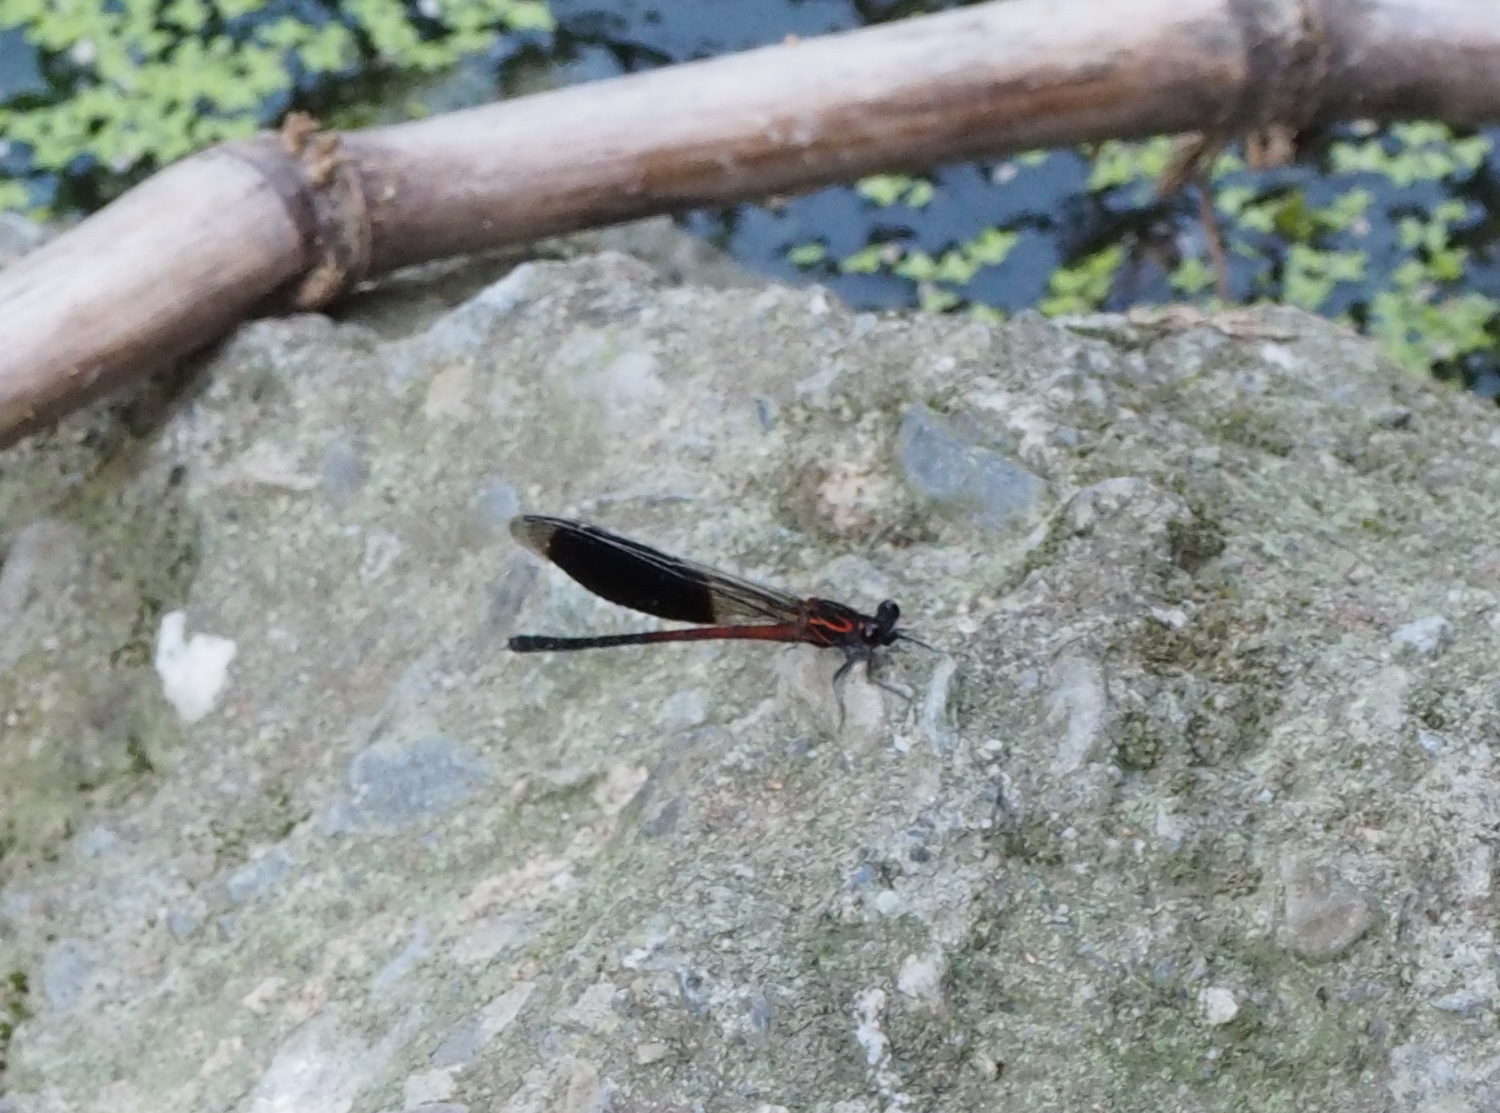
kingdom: Animalia
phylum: Arthropoda
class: Insecta
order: Odonata
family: Euphaeidae
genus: Euphaea
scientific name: Euphaea formosa
